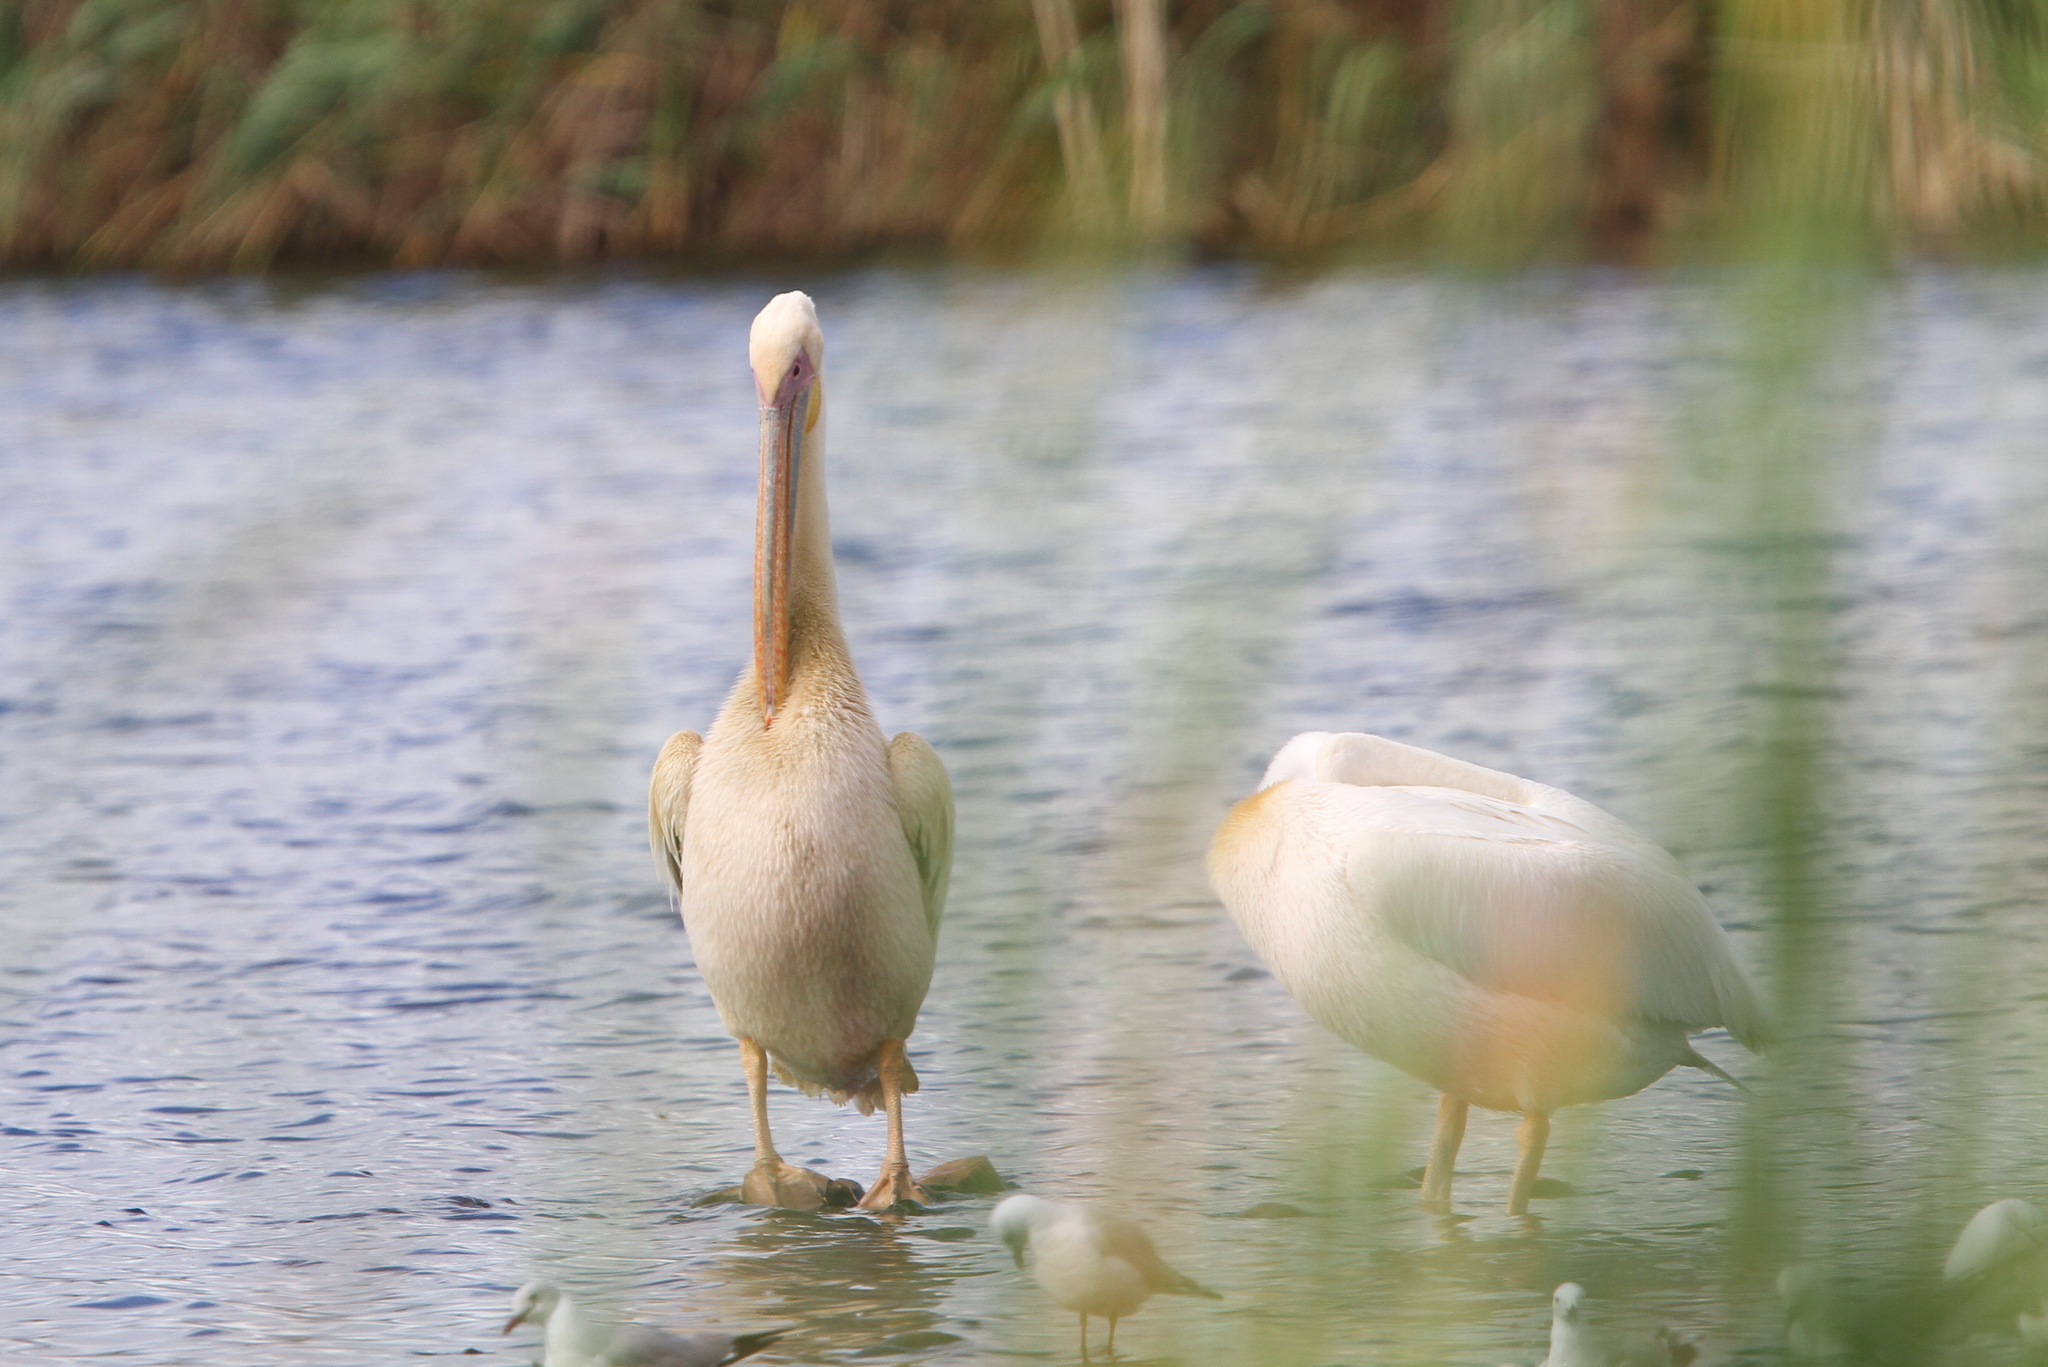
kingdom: Animalia
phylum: Chordata
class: Aves
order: Pelecaniformes
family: Pelecanidae
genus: Pelecanus
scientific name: Pelecanus onocrotalus
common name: Great white pelican
